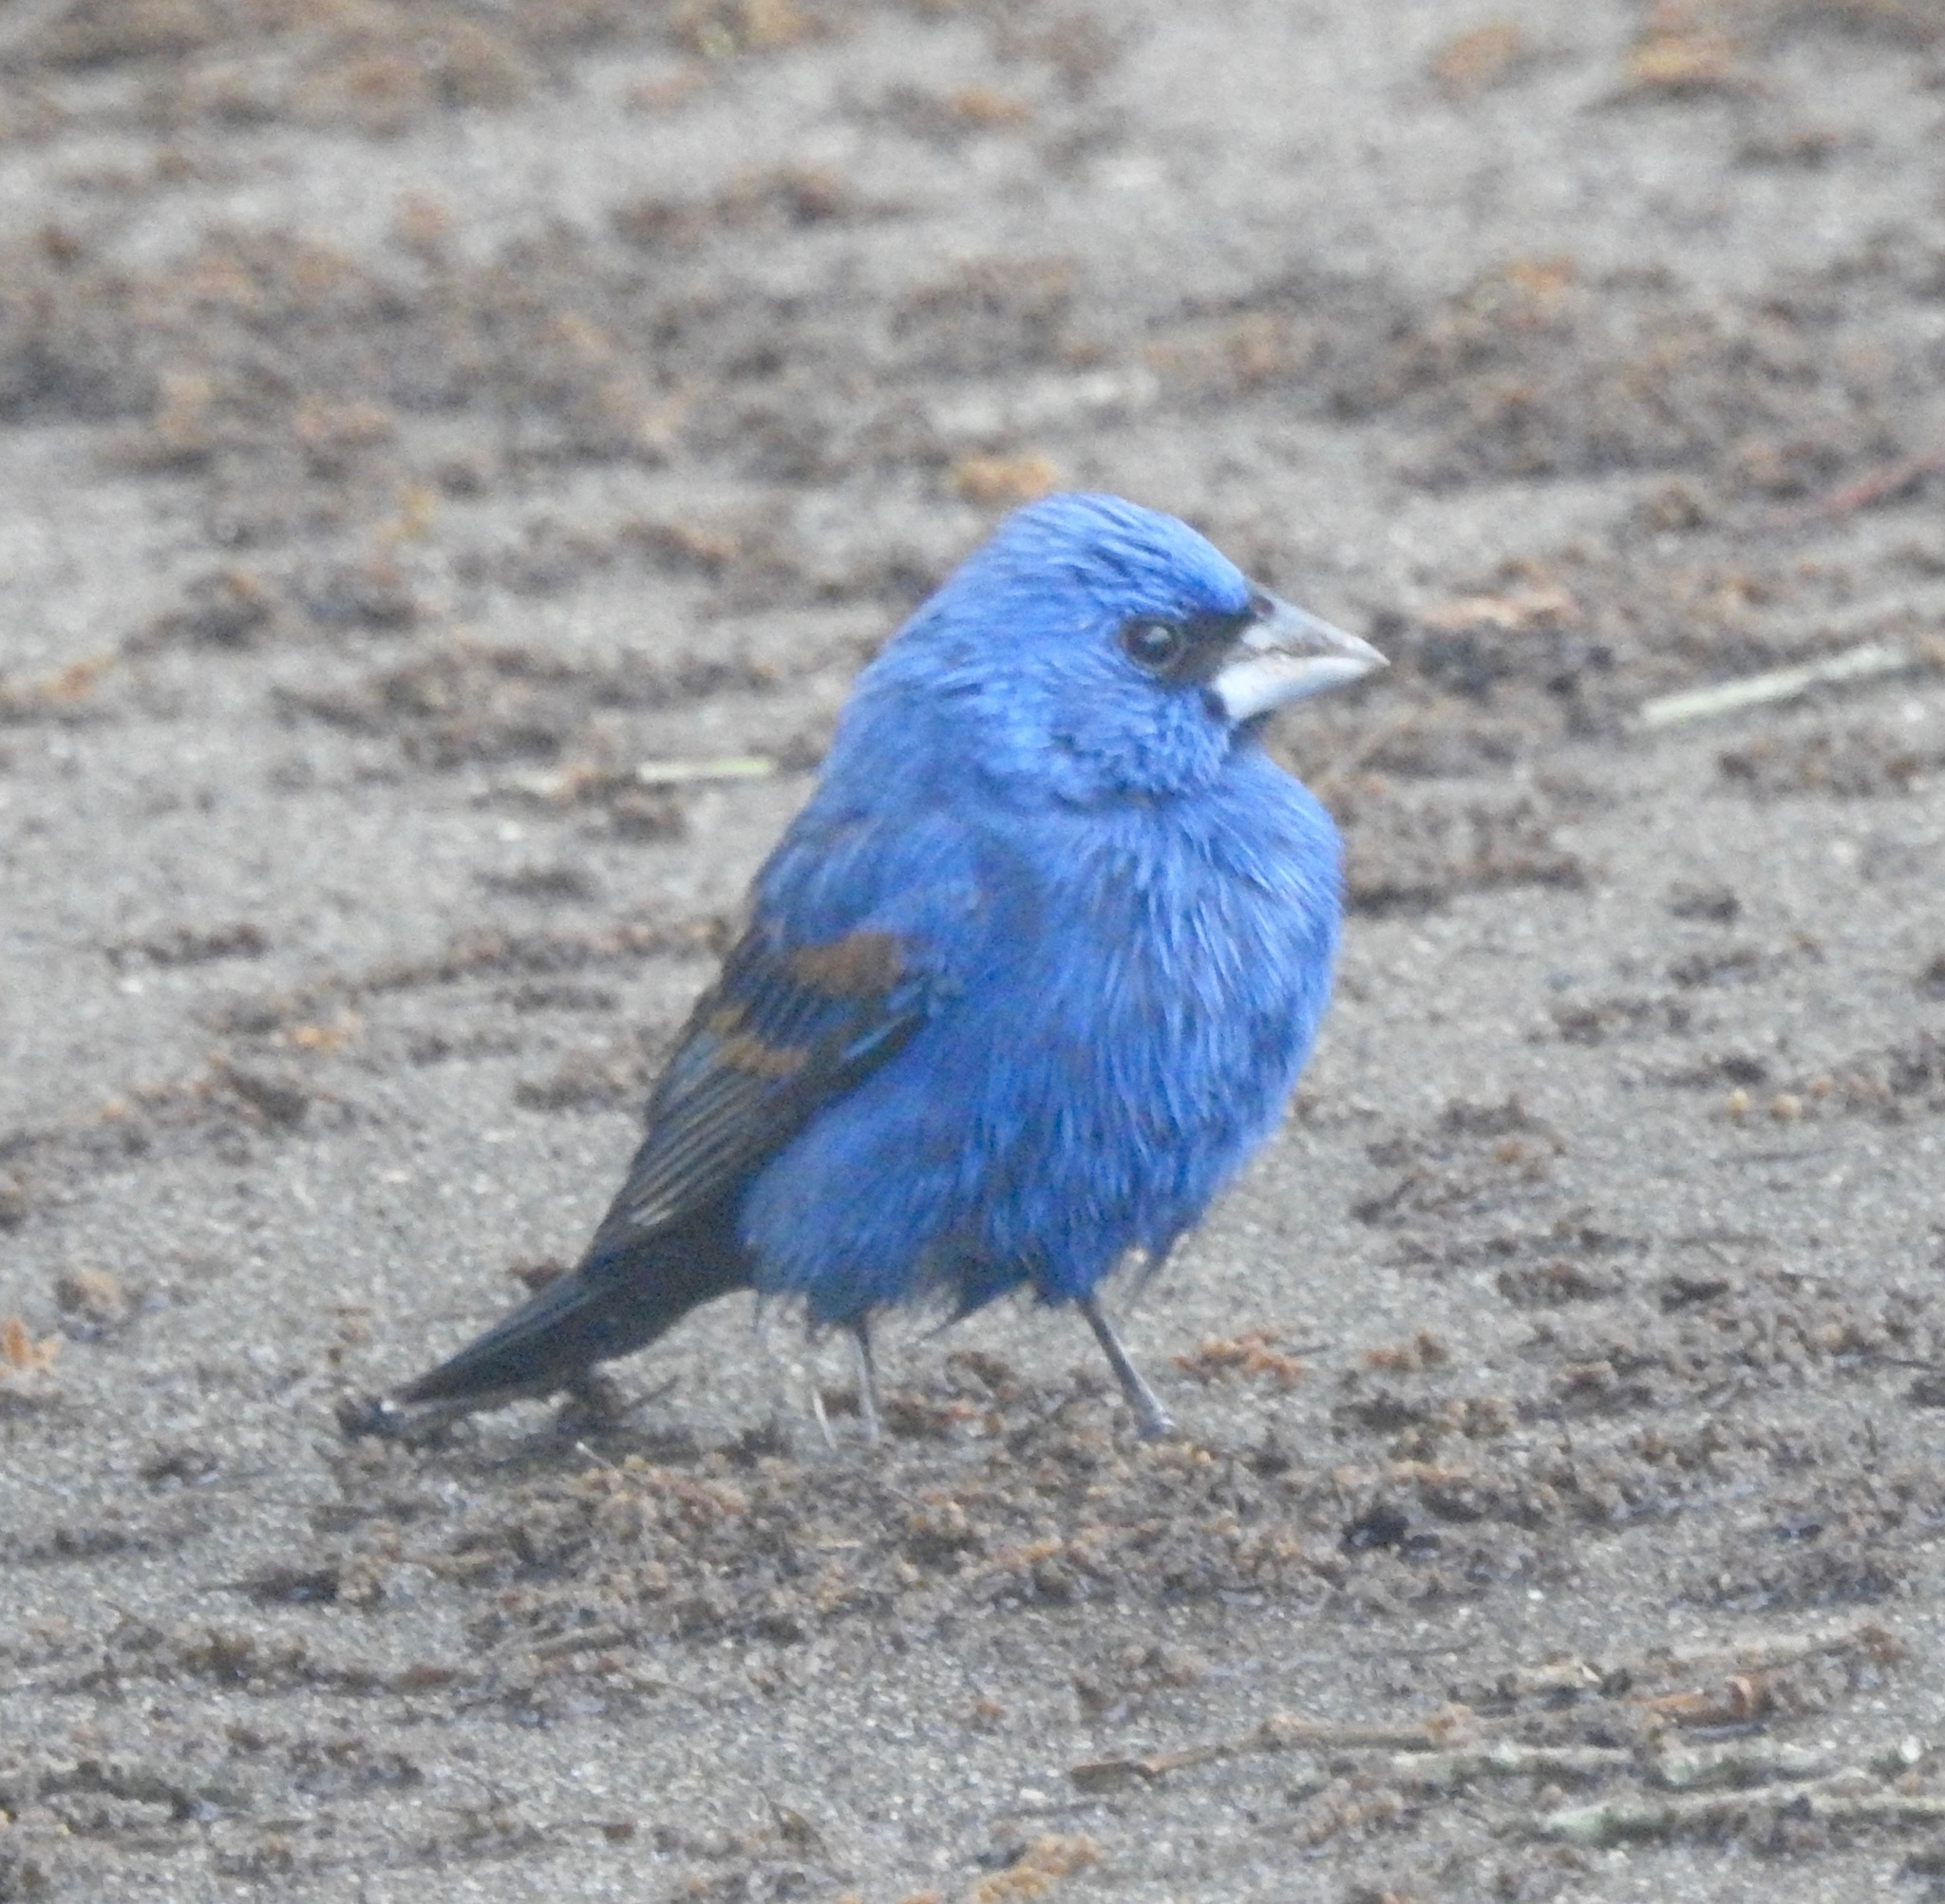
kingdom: Animalia
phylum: Chordata
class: Aves
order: Passeriformes
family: Cardinalidae
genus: Passerina
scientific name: Passerina caerulea
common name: Blue grosbeak
